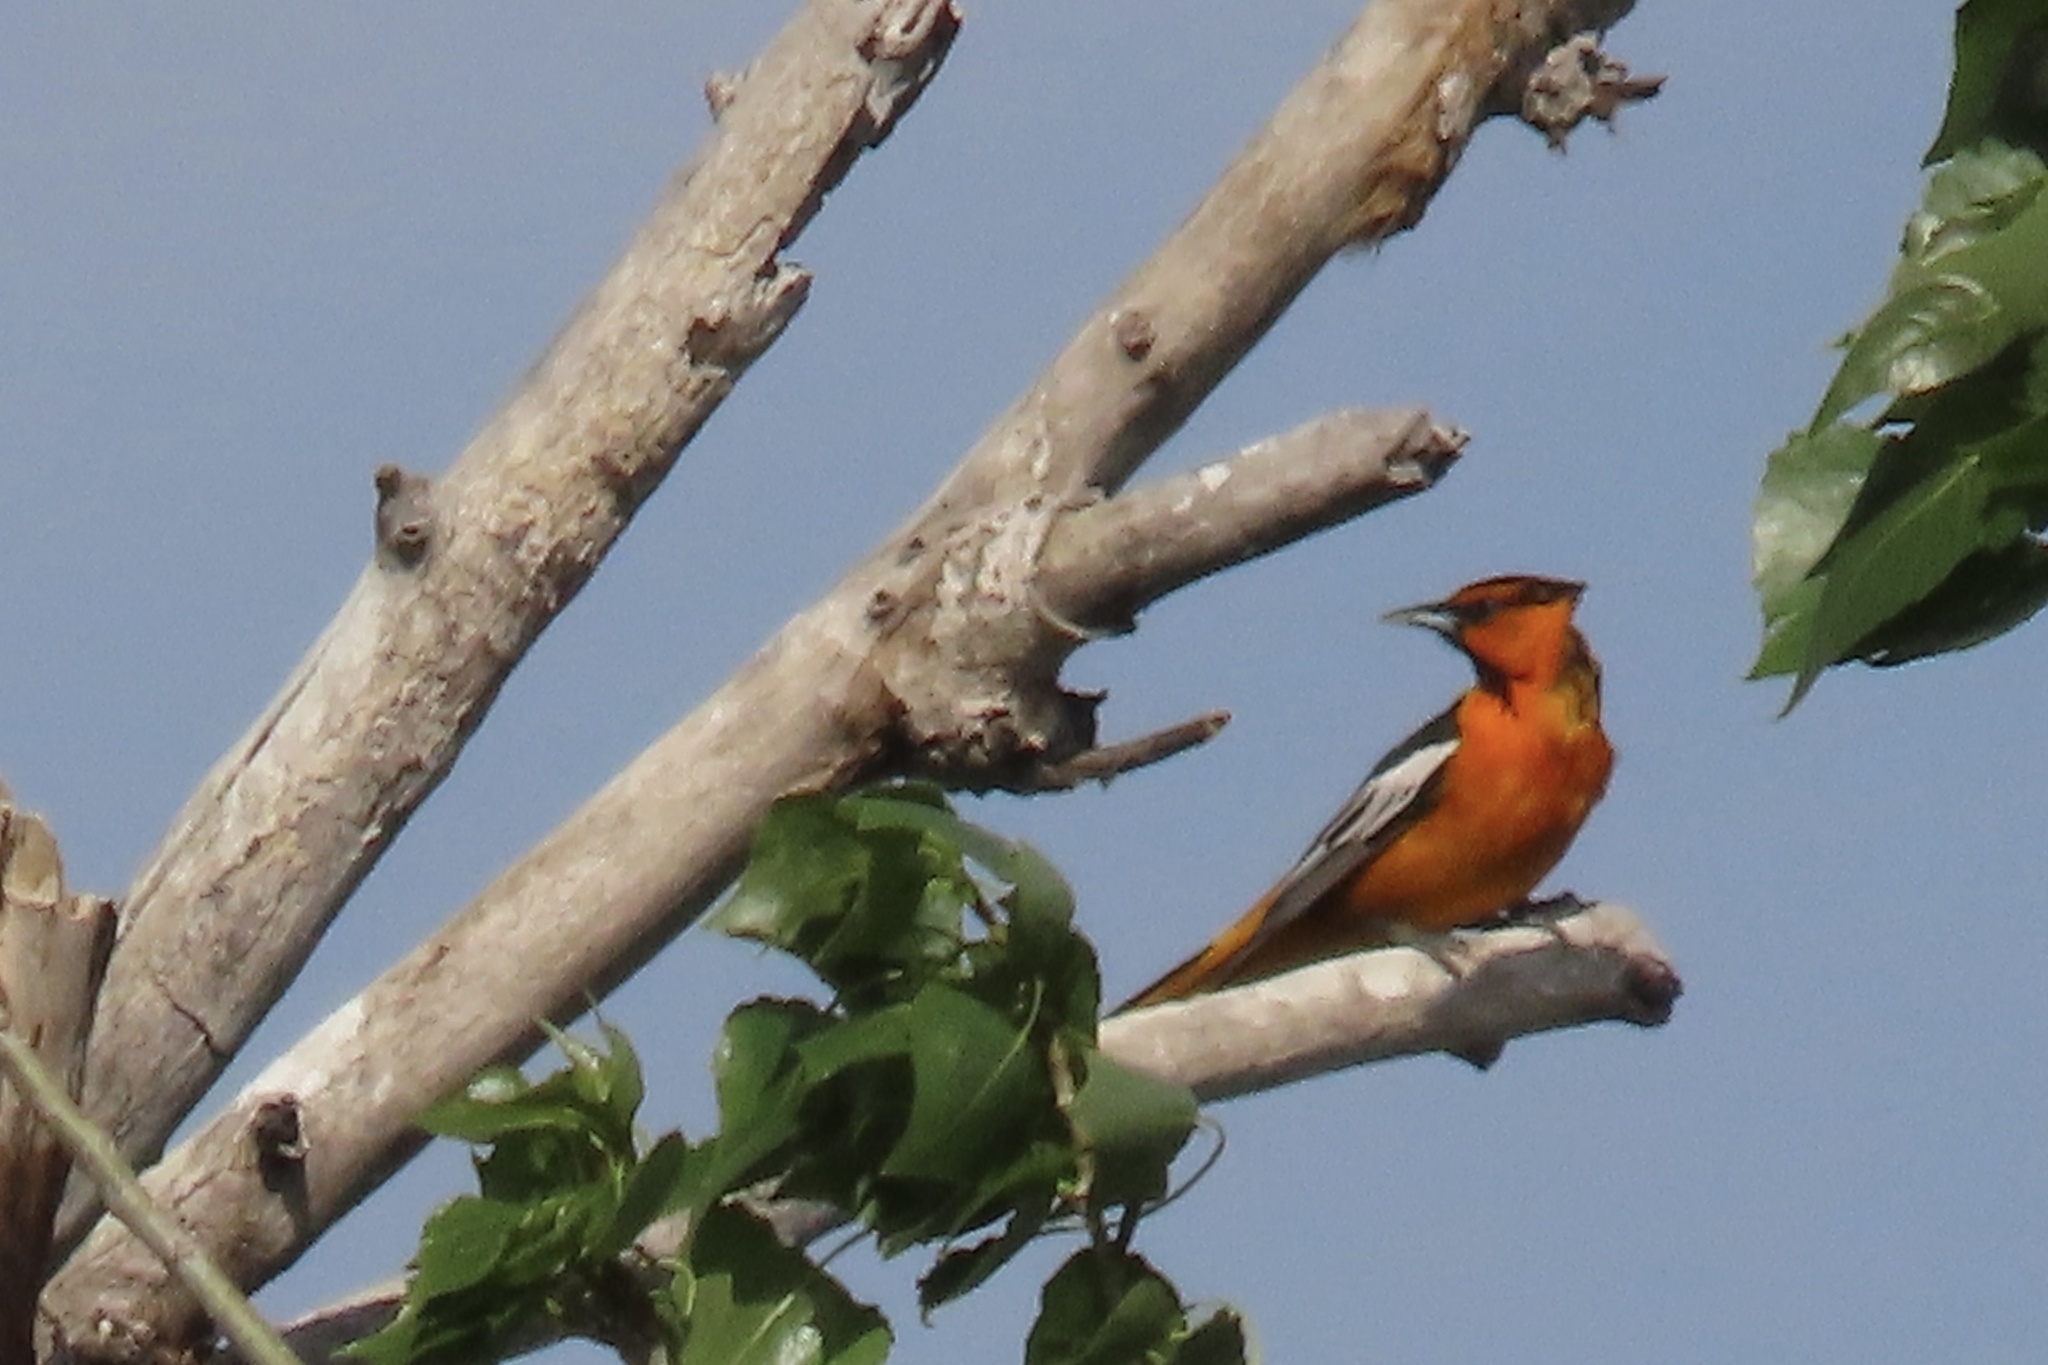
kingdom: Animalia
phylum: Chordata
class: Aves
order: Passeriformes
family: Icteridae
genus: Icterus
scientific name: Icterus bullockii
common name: Bullock's oriole
